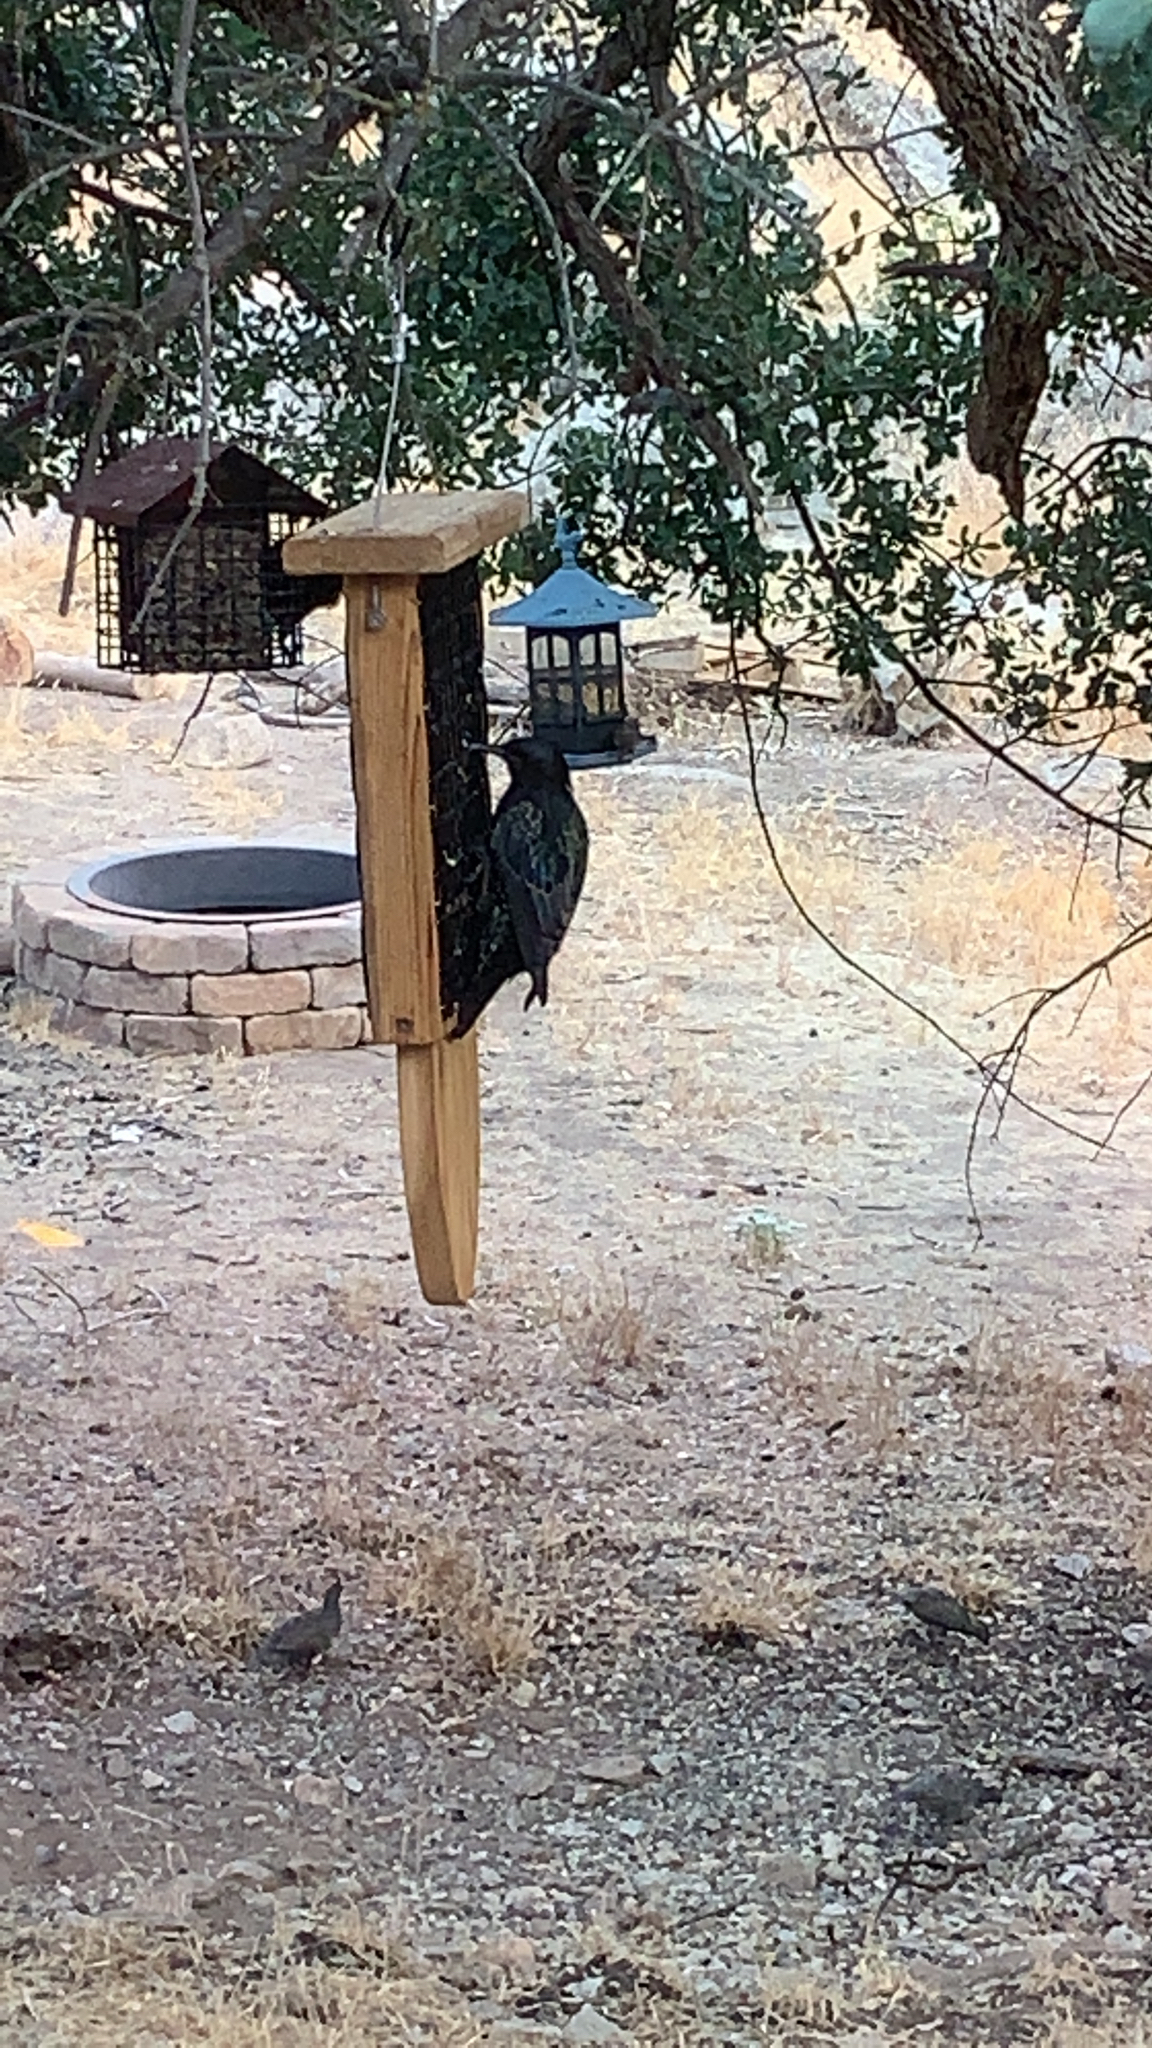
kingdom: Animalia
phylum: Chordata
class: Aves
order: Passeriformes
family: Sturnidae
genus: Sturnus
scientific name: Sturnus vulgaris
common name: Common starling
